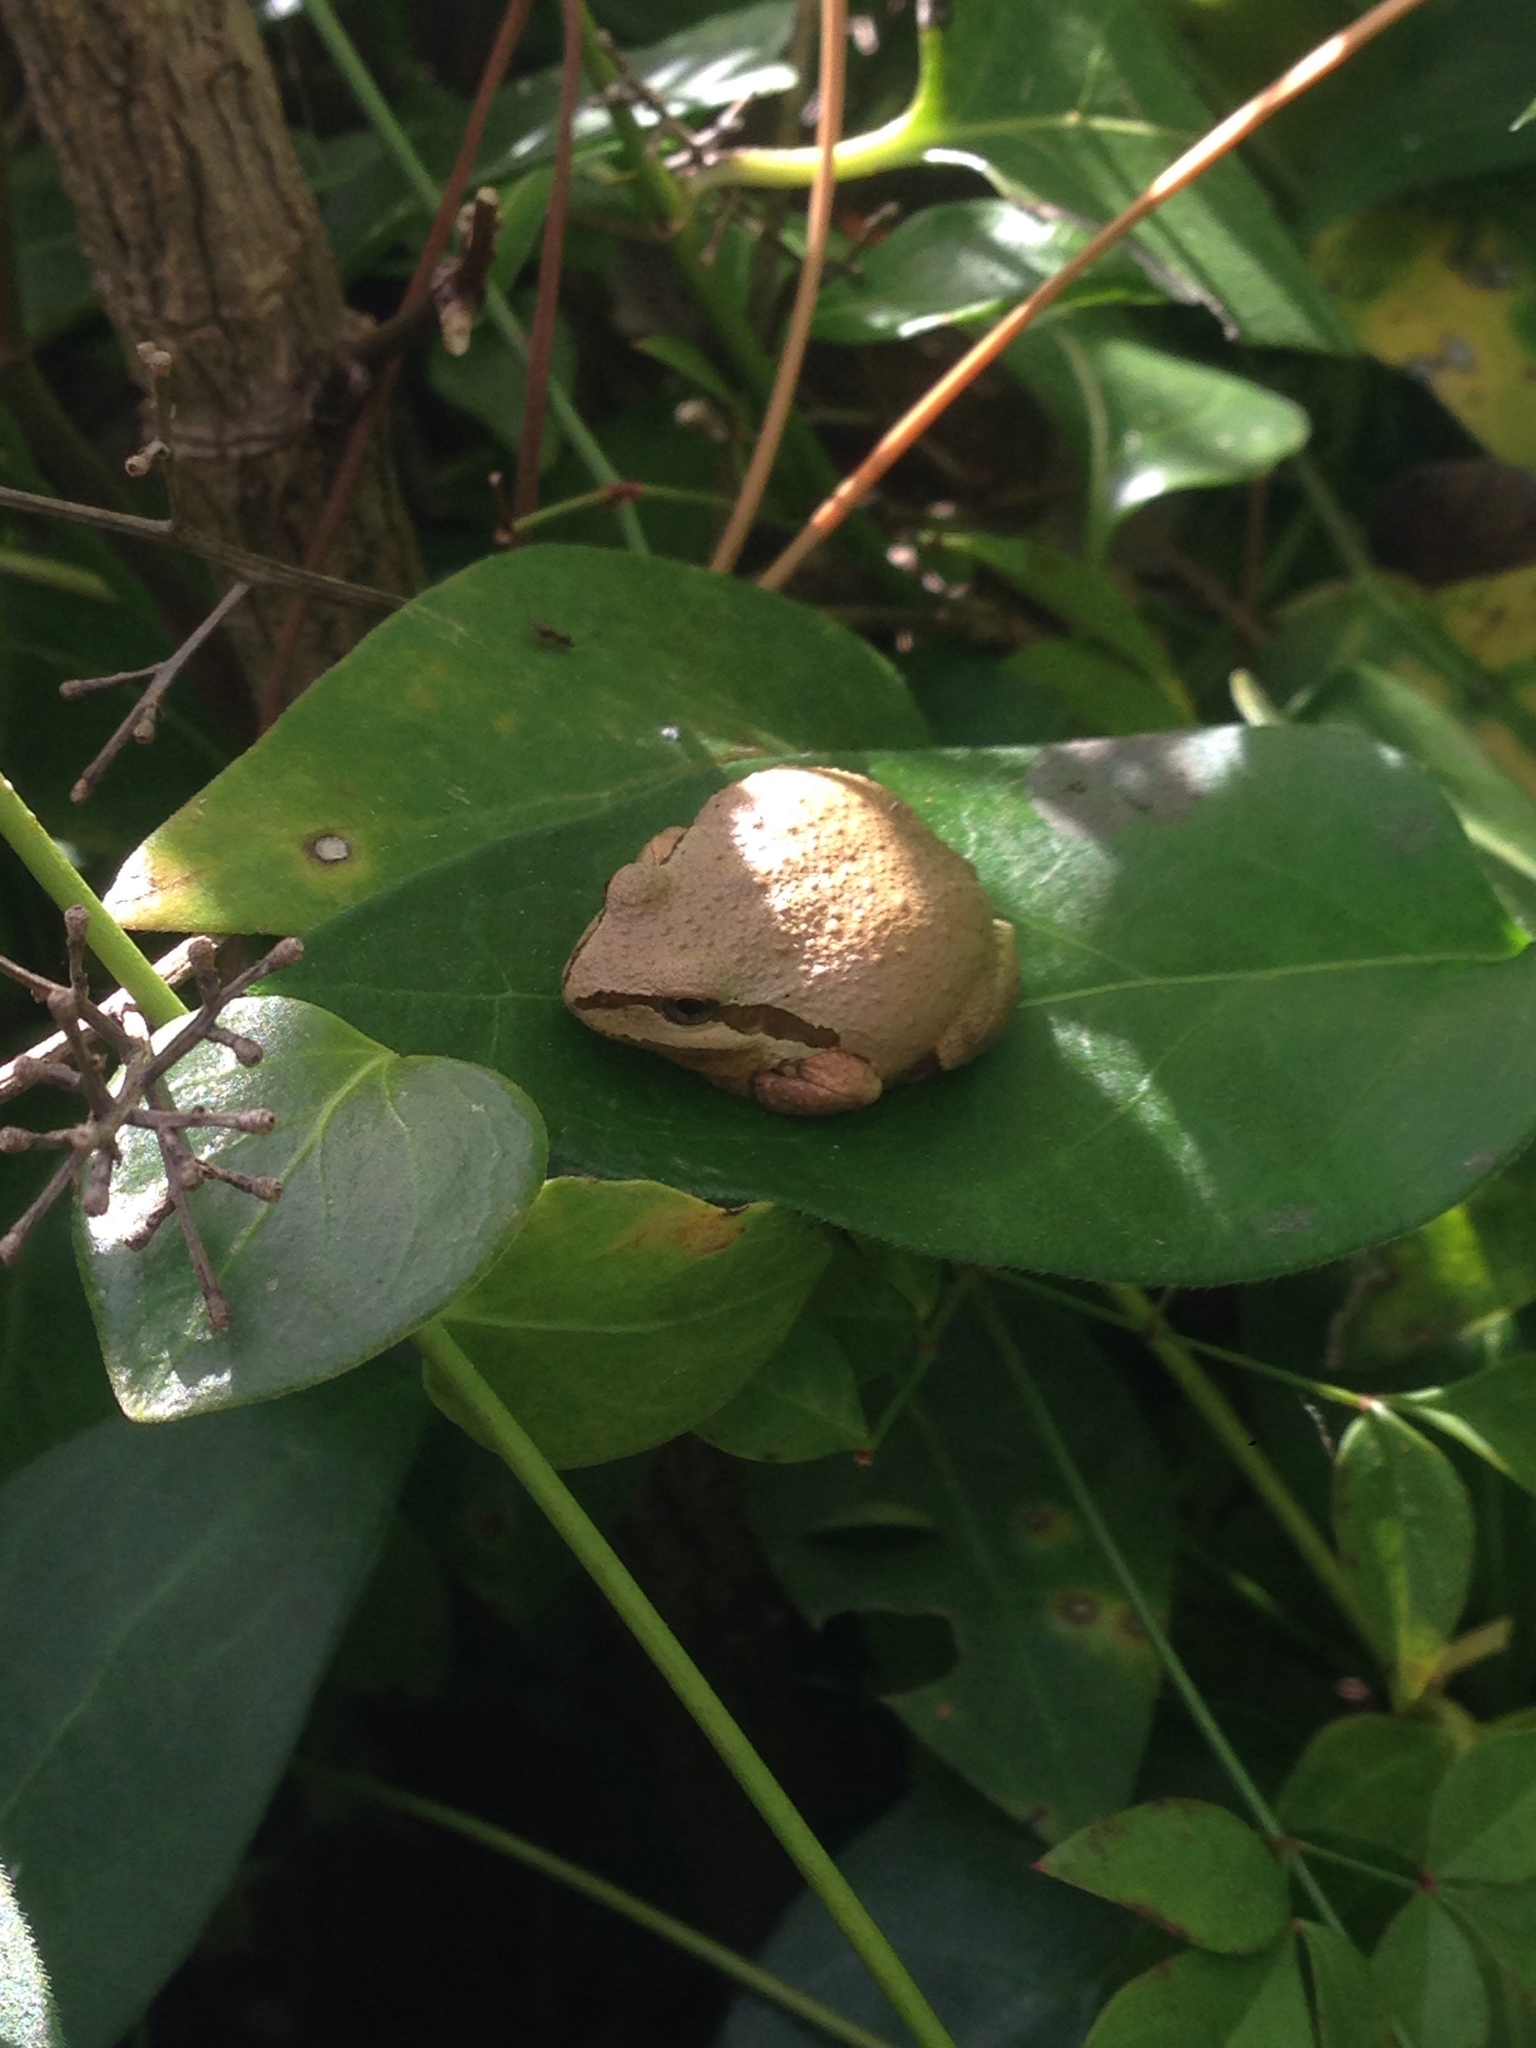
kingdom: Animalia
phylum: Chordata
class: Amphibia
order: Anura
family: Hylidae
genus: Pseudacris
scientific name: Pseudacris regilla
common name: Pacific chorus frog
